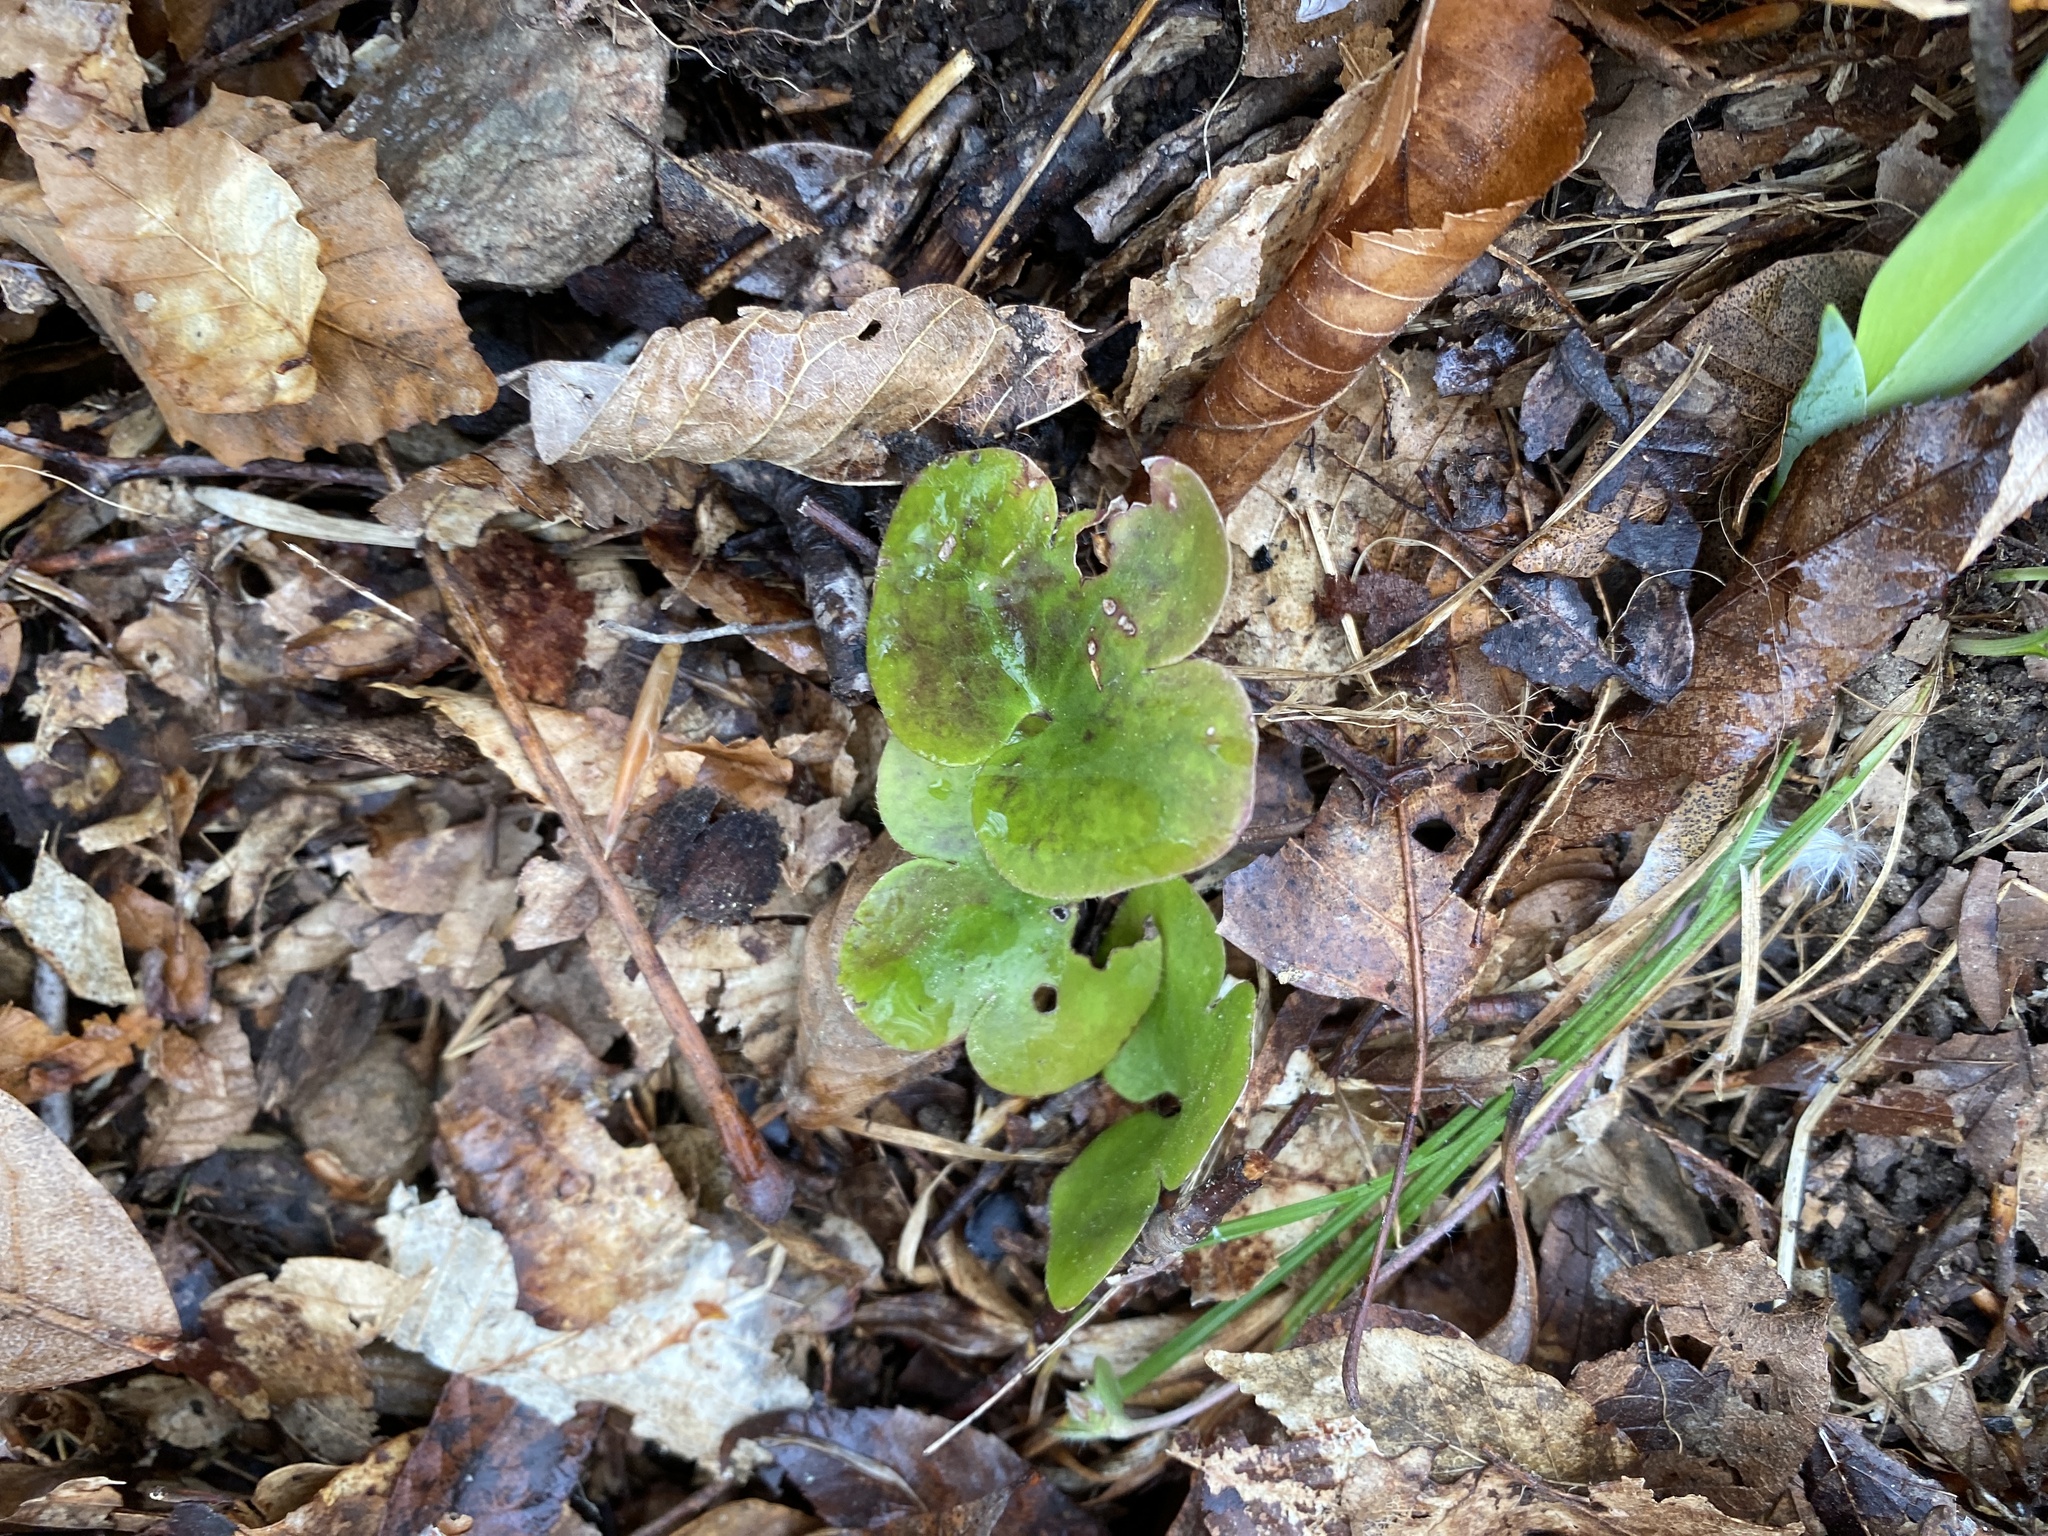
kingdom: Plantae
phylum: Tracheophyta
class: Magnoliopsida
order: Ranunculales
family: Ranunculaceae
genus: Hepatica
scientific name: Hepatica americana
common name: American hepatica
